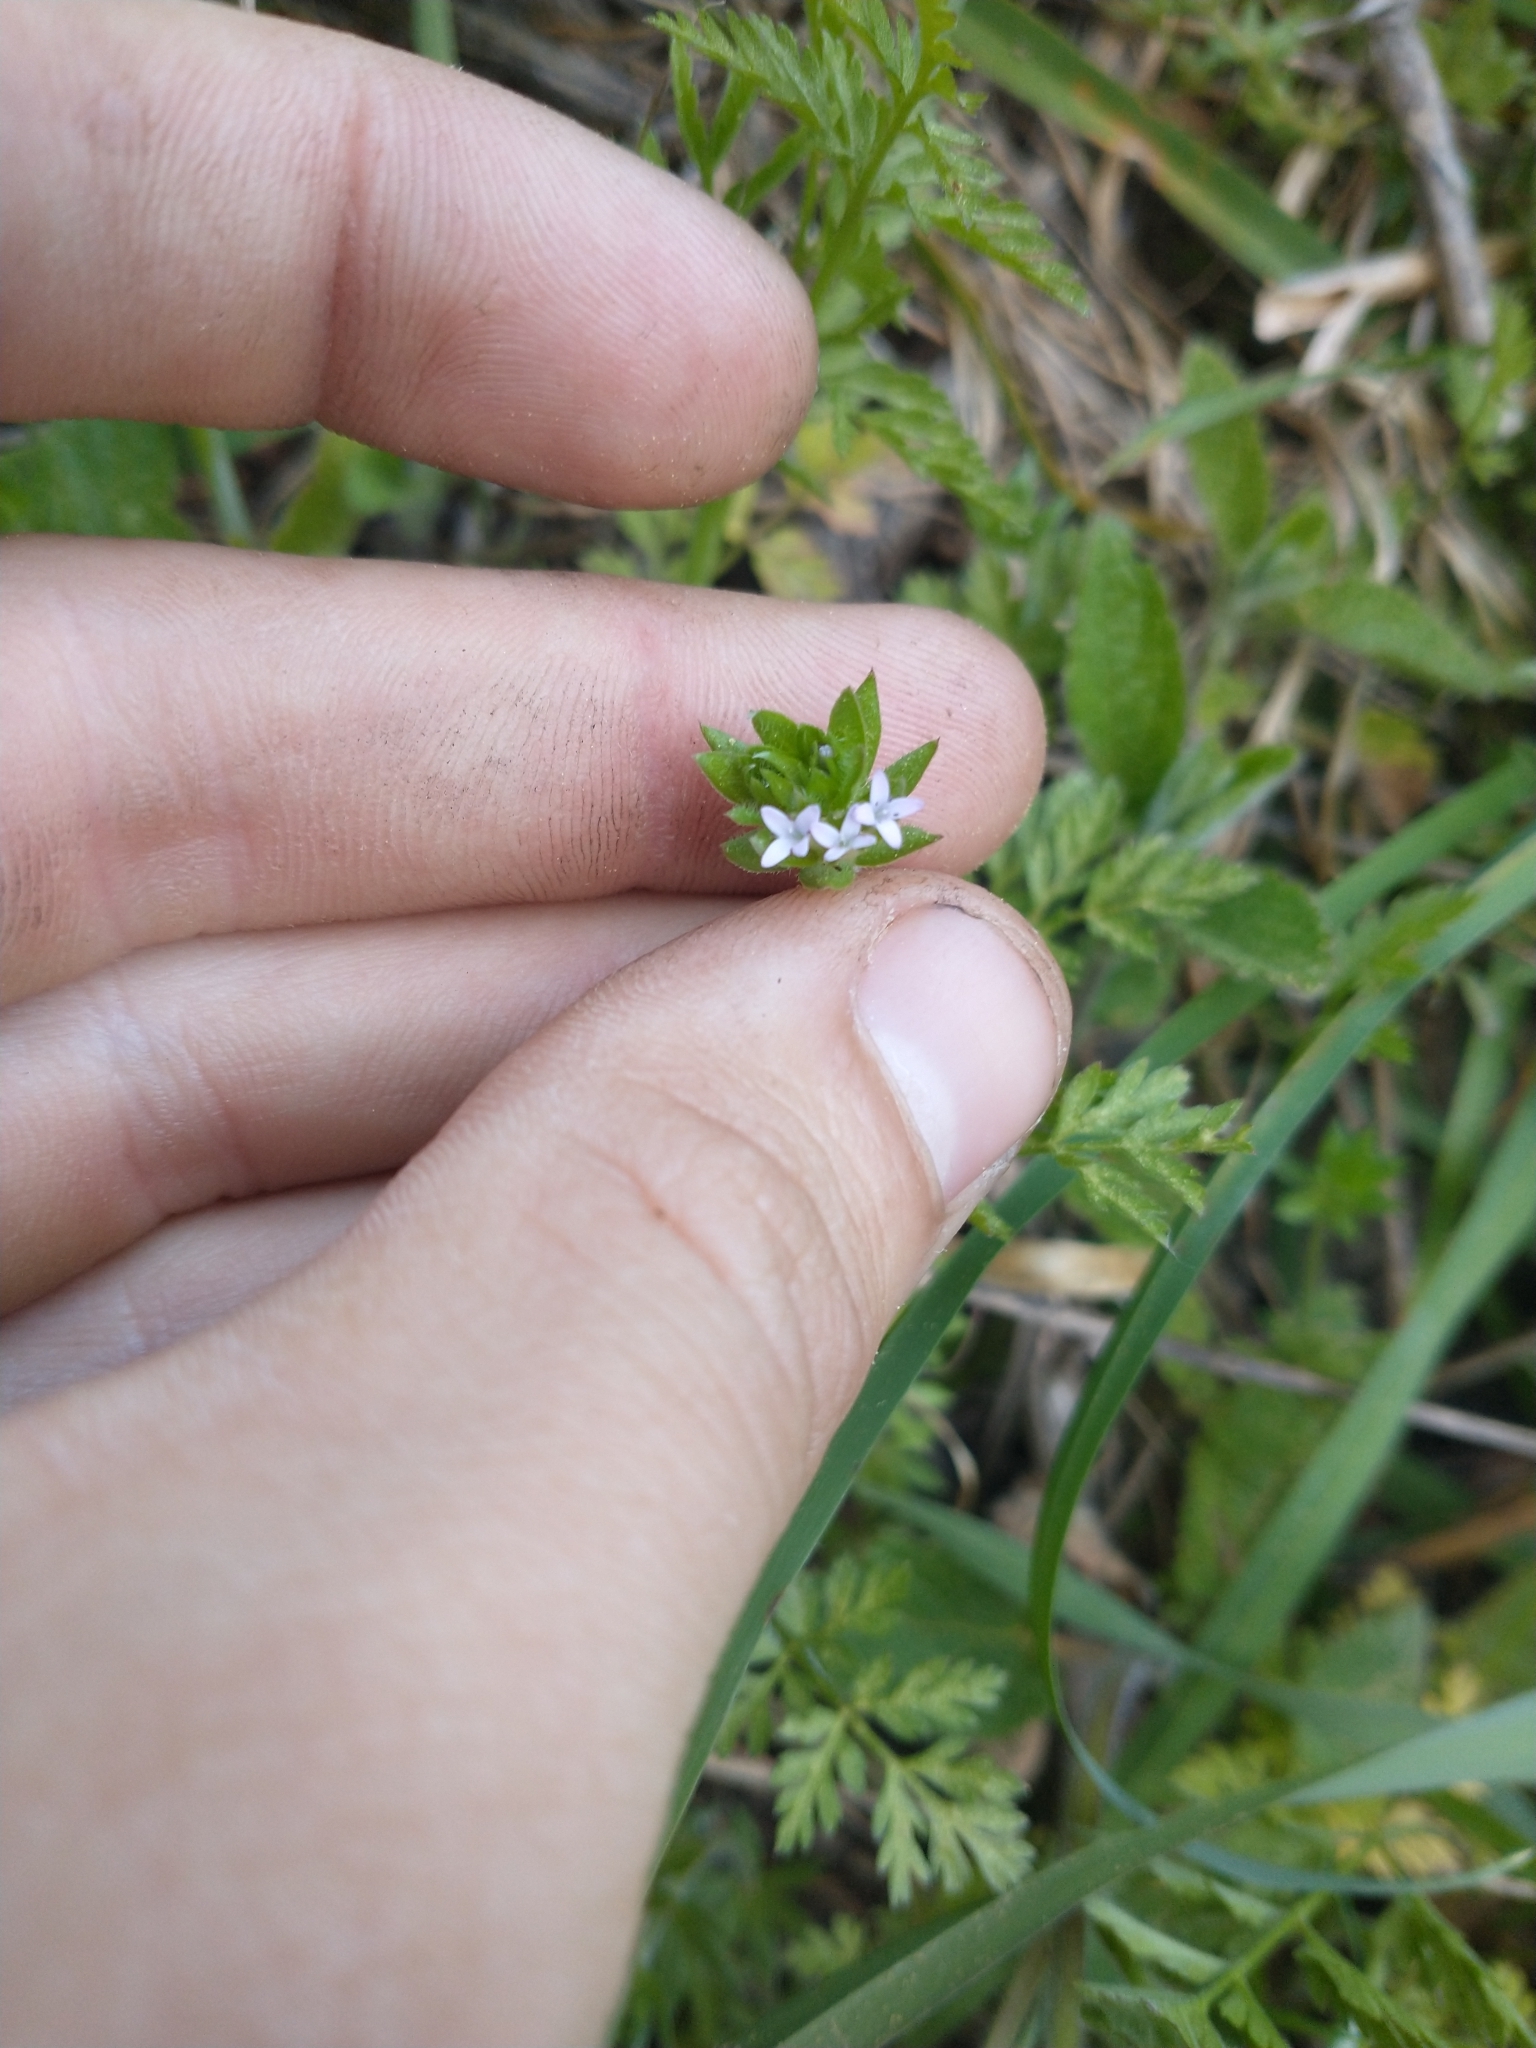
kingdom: Plantae
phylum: Tracheophyta
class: Magnoliopsida
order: Gentianales
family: Rubiaceae
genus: Sherardia
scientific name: Sherardia arvensis
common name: Field madder
